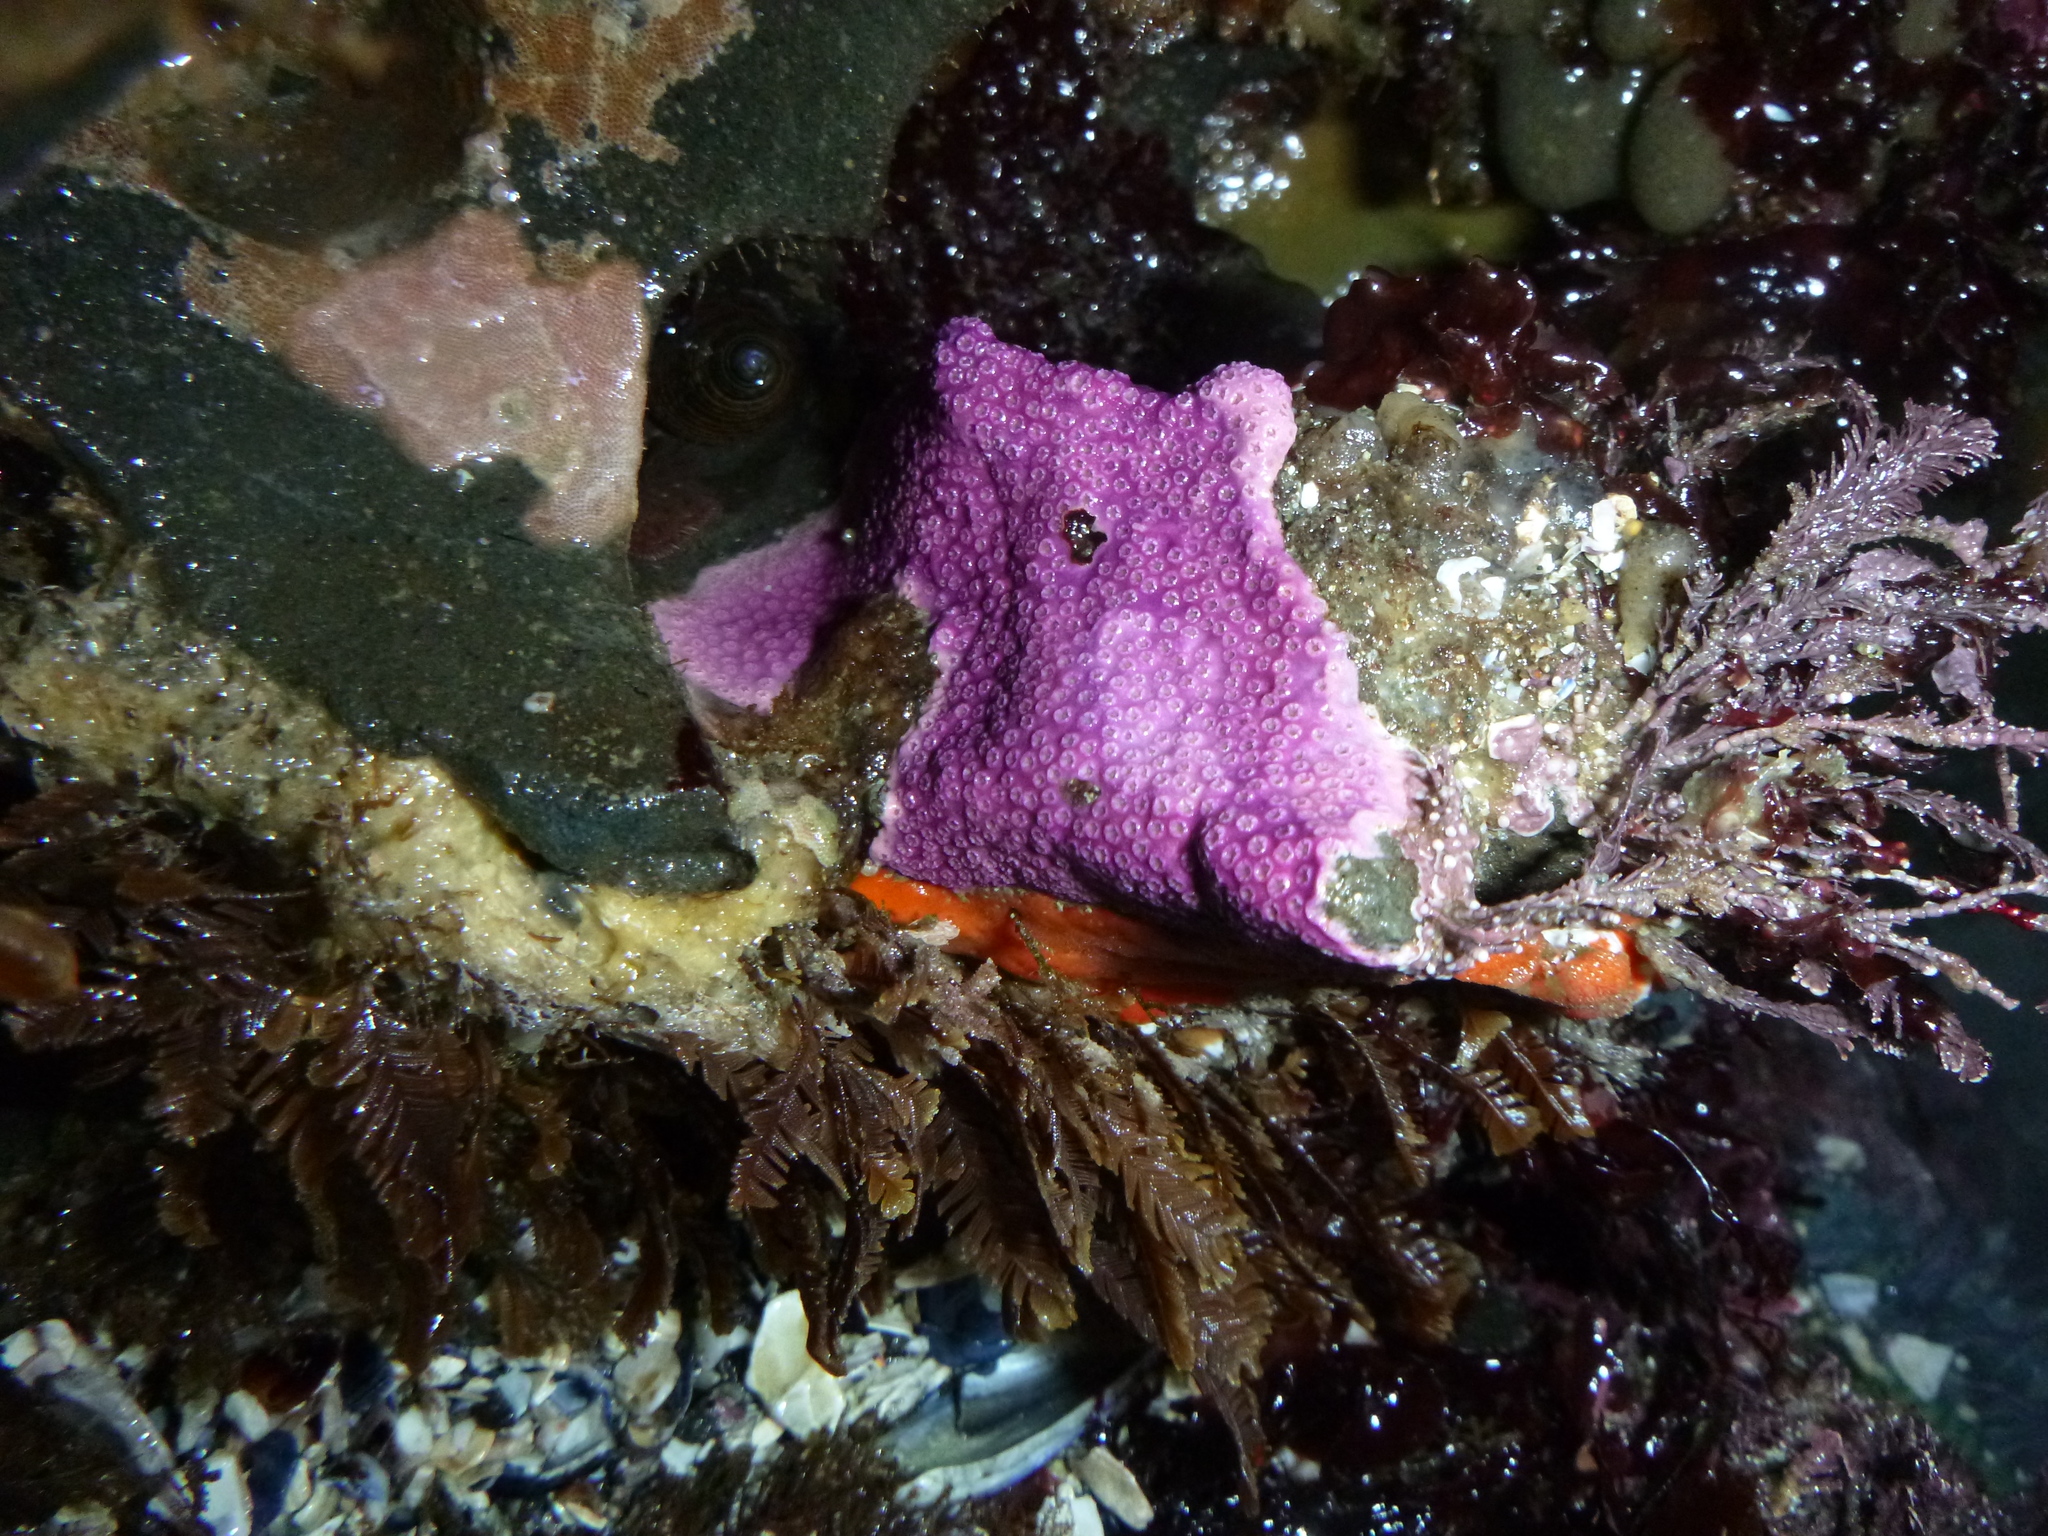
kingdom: Animalia
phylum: Cnidaria
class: Hydrozoa
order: Anthoathecata
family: Stylasteridae
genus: Stylantheca
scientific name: Stylantheca papillosa
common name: Corrugated lace hydrocoral
